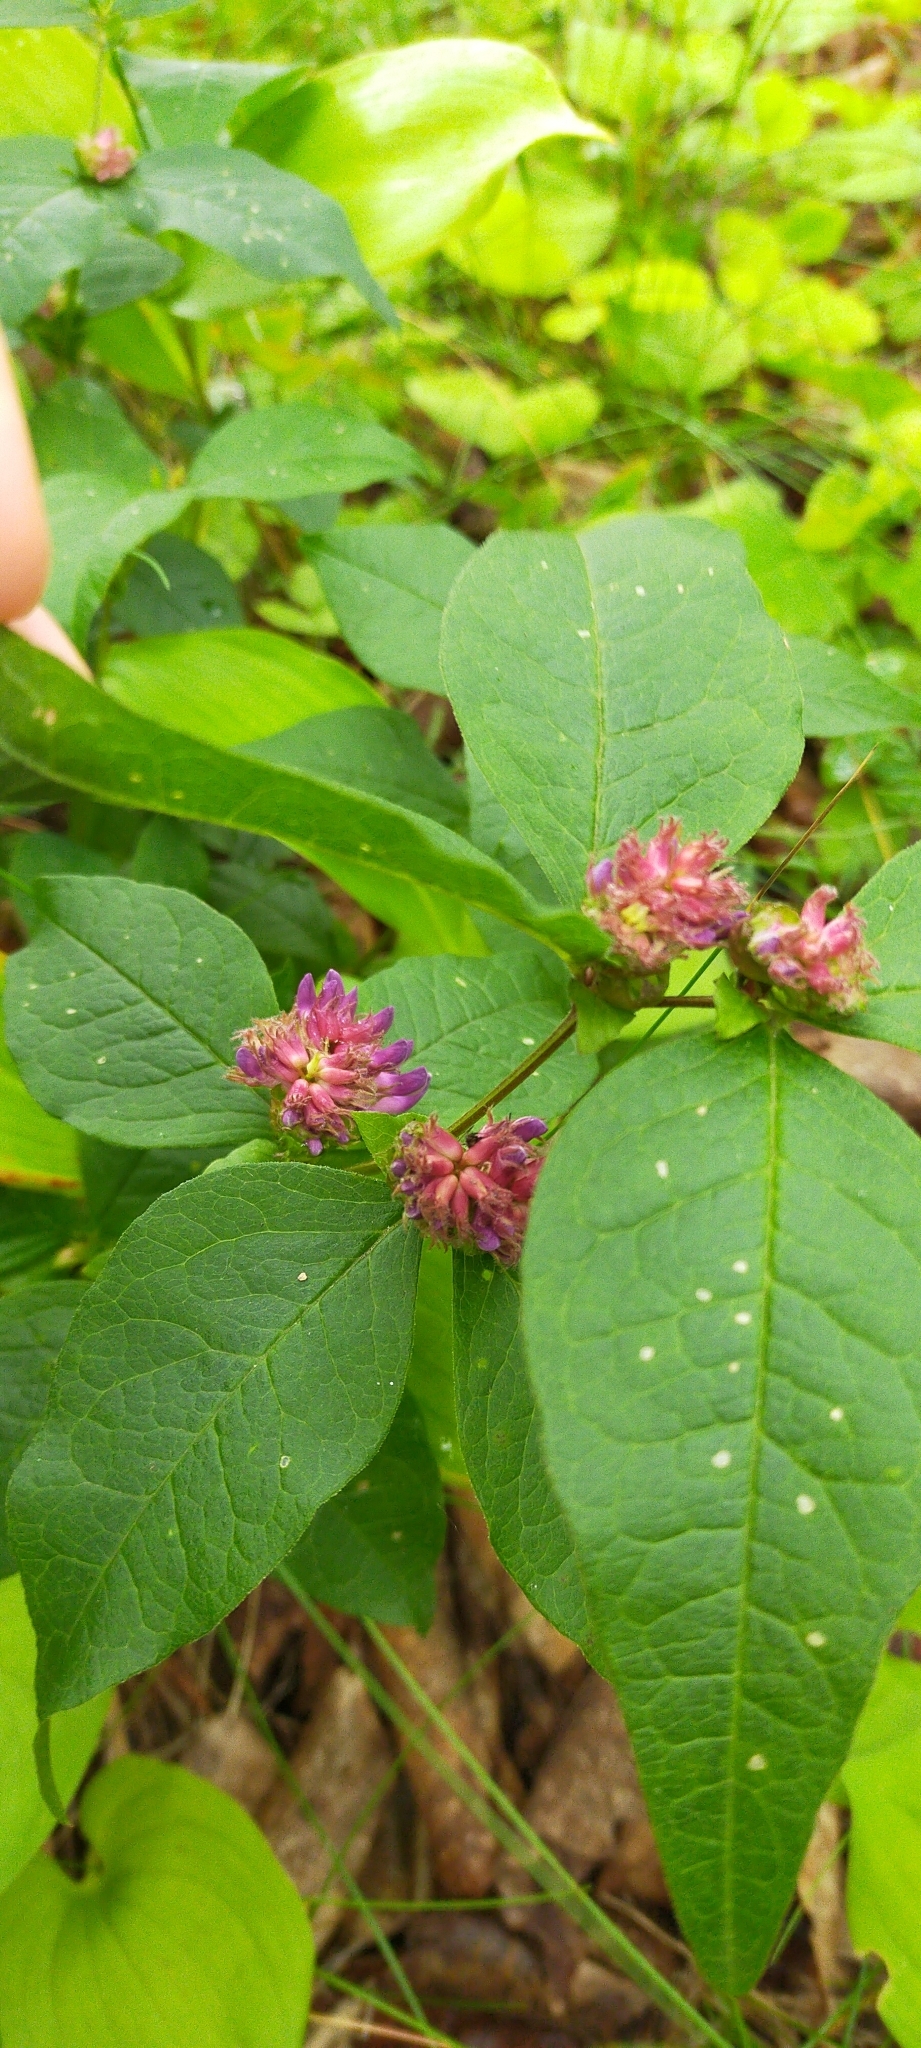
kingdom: Plantae
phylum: Tracheophyta
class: Magnoliopsida
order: Fabales
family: Fabaceae
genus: Vicia
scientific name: Vicia ohwiana
